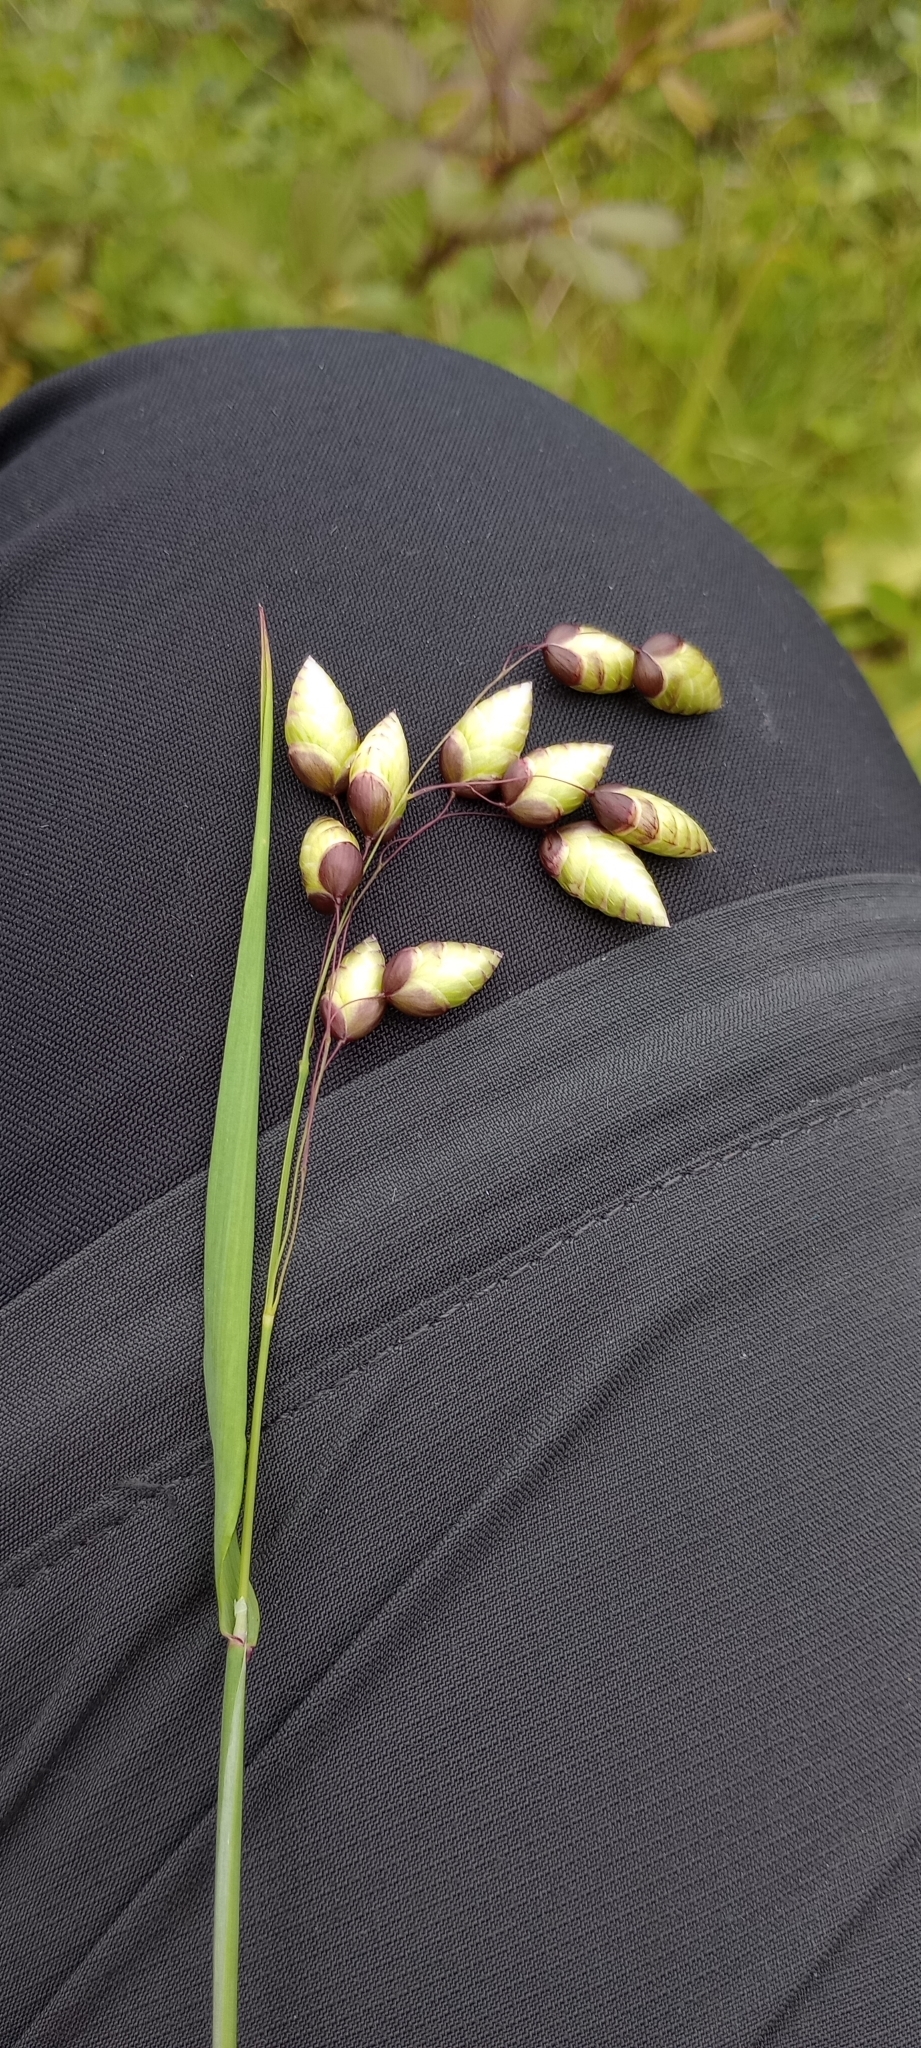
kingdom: Plantae
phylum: Tracheophyta
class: Liliopsida
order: Poales
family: Poaceae
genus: Briza
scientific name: Briza maxima
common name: Big quakinggrass
